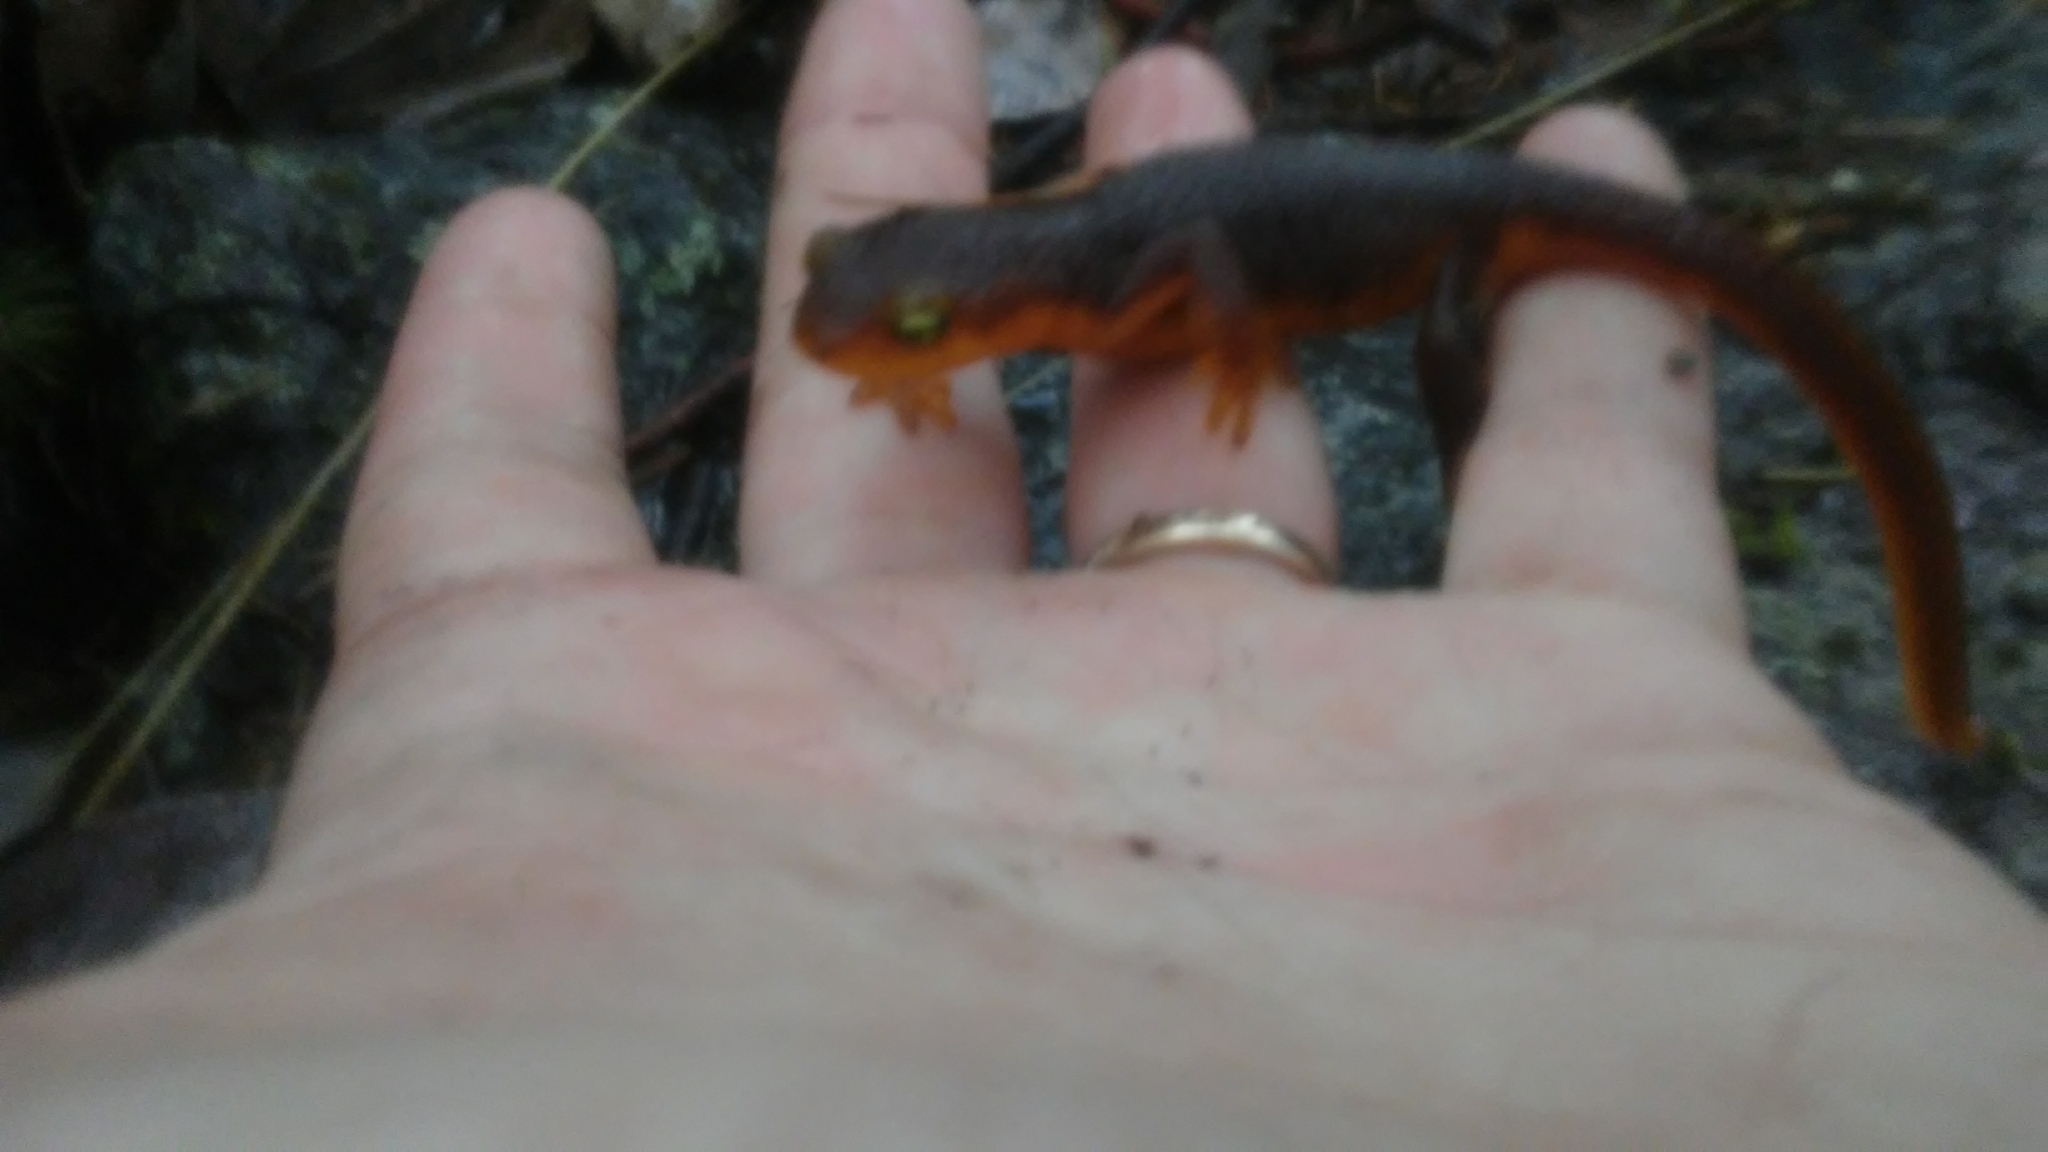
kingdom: Animalia
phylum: Chordata
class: Amphibia
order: Caudata
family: Salamandridae
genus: Taricha
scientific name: Taricha torosa
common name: California newt
